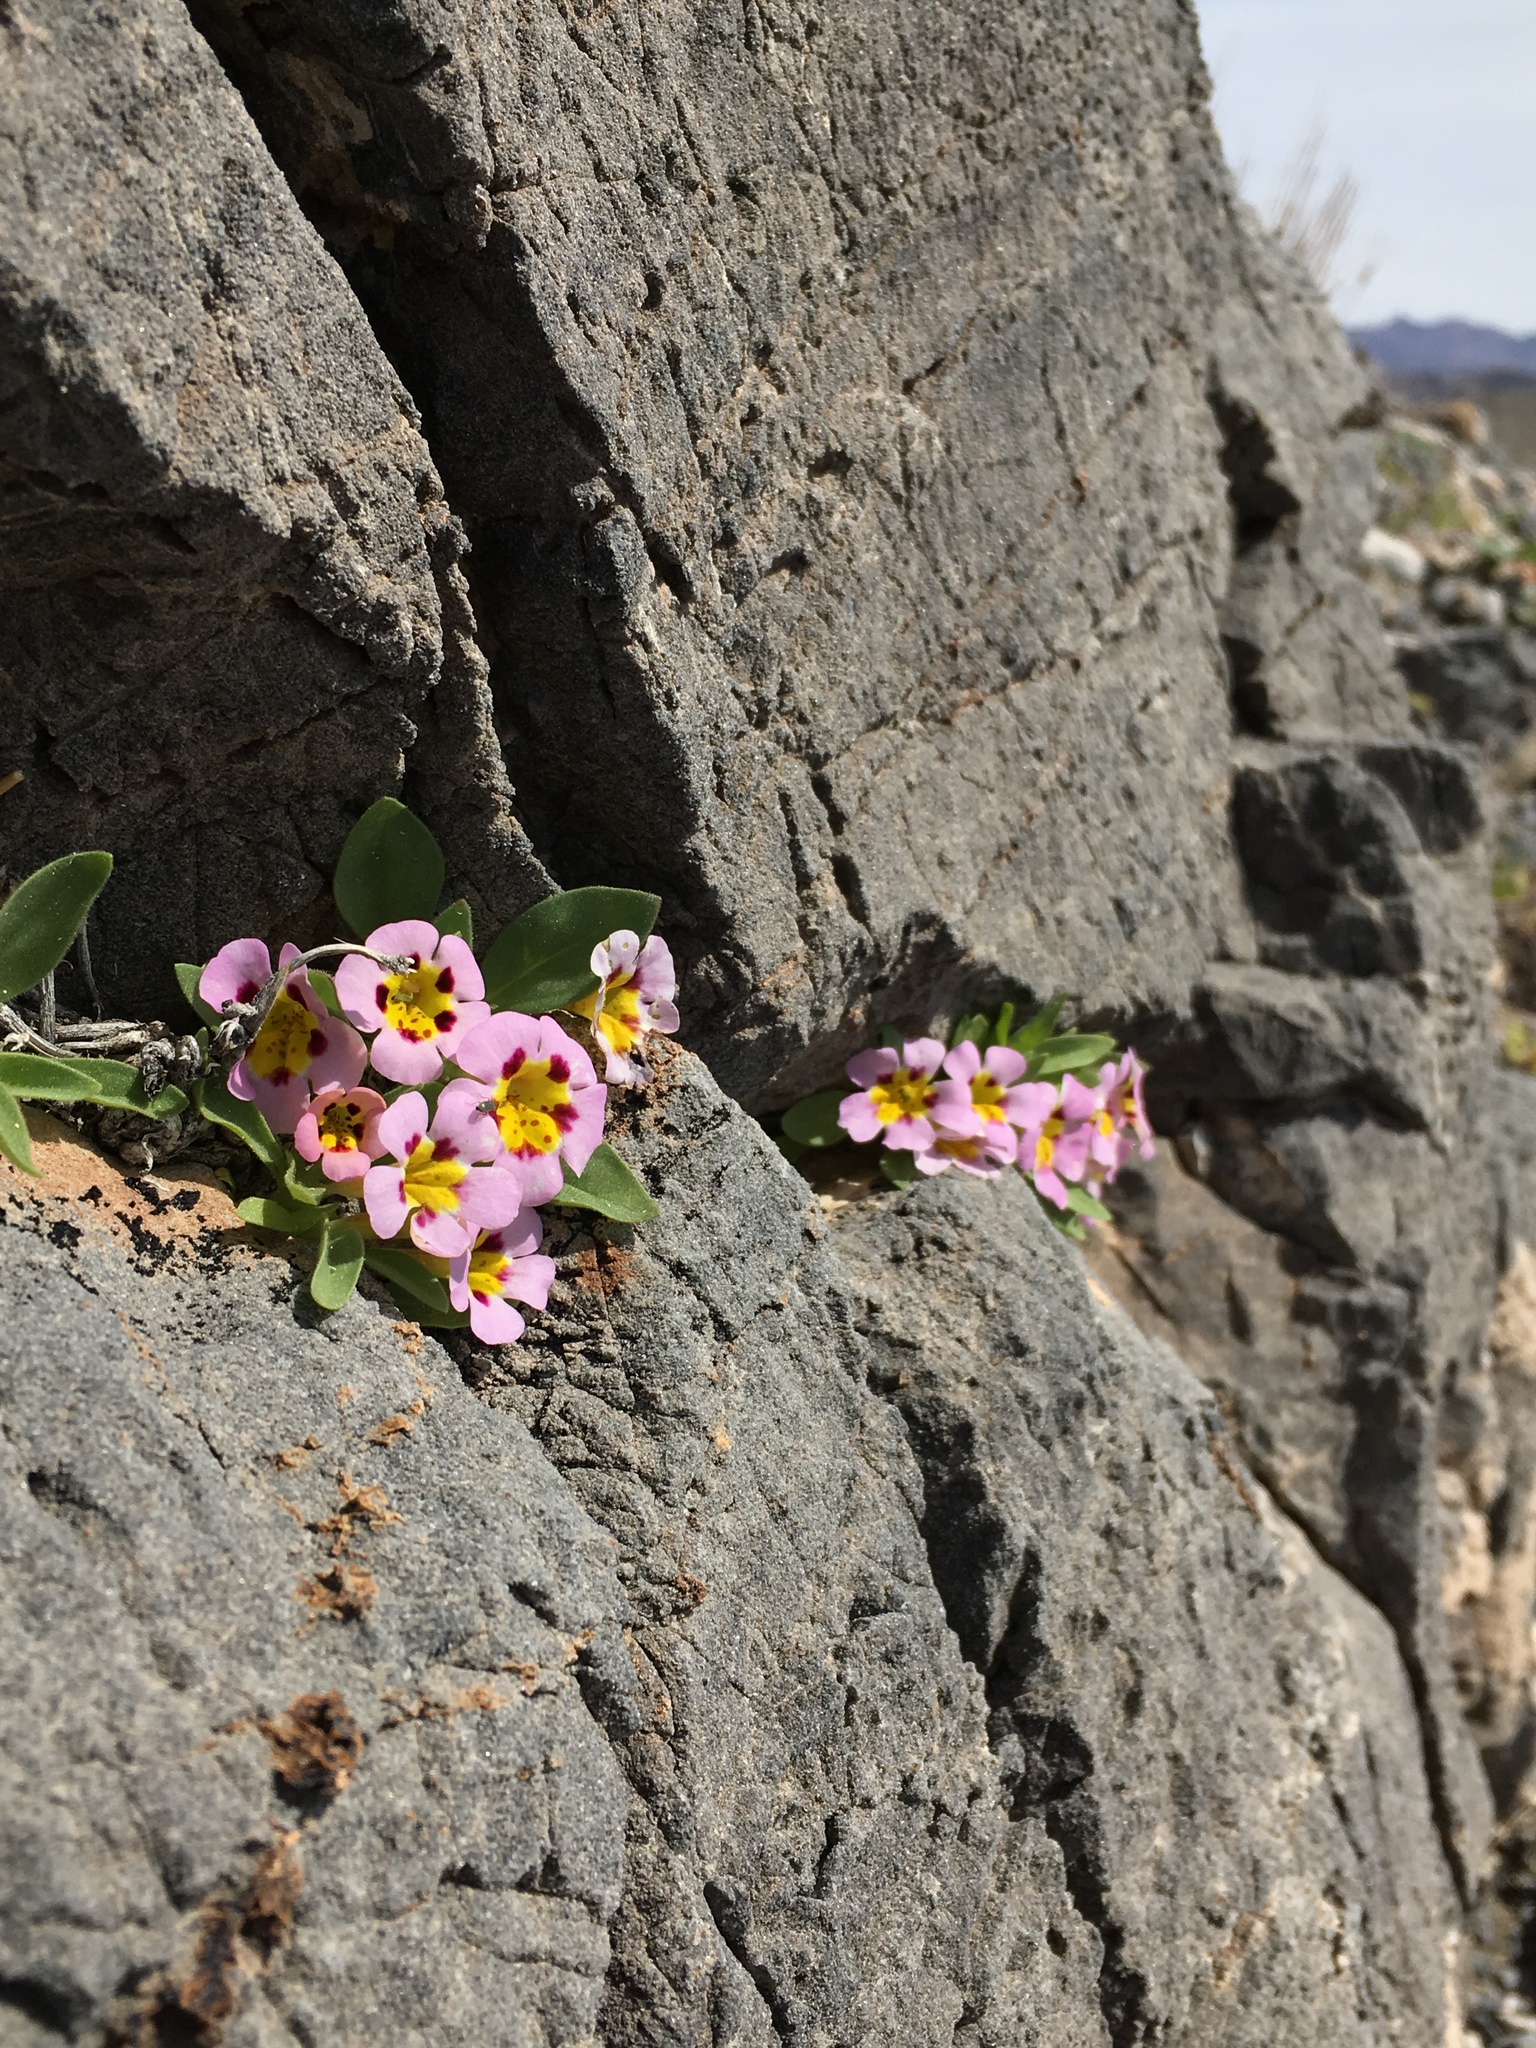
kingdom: Plantae
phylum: Tracheophyta
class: Magnoliopsida
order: Lamiales
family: Phrymaceae
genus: Diplacus
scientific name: Diplacus rupicola
